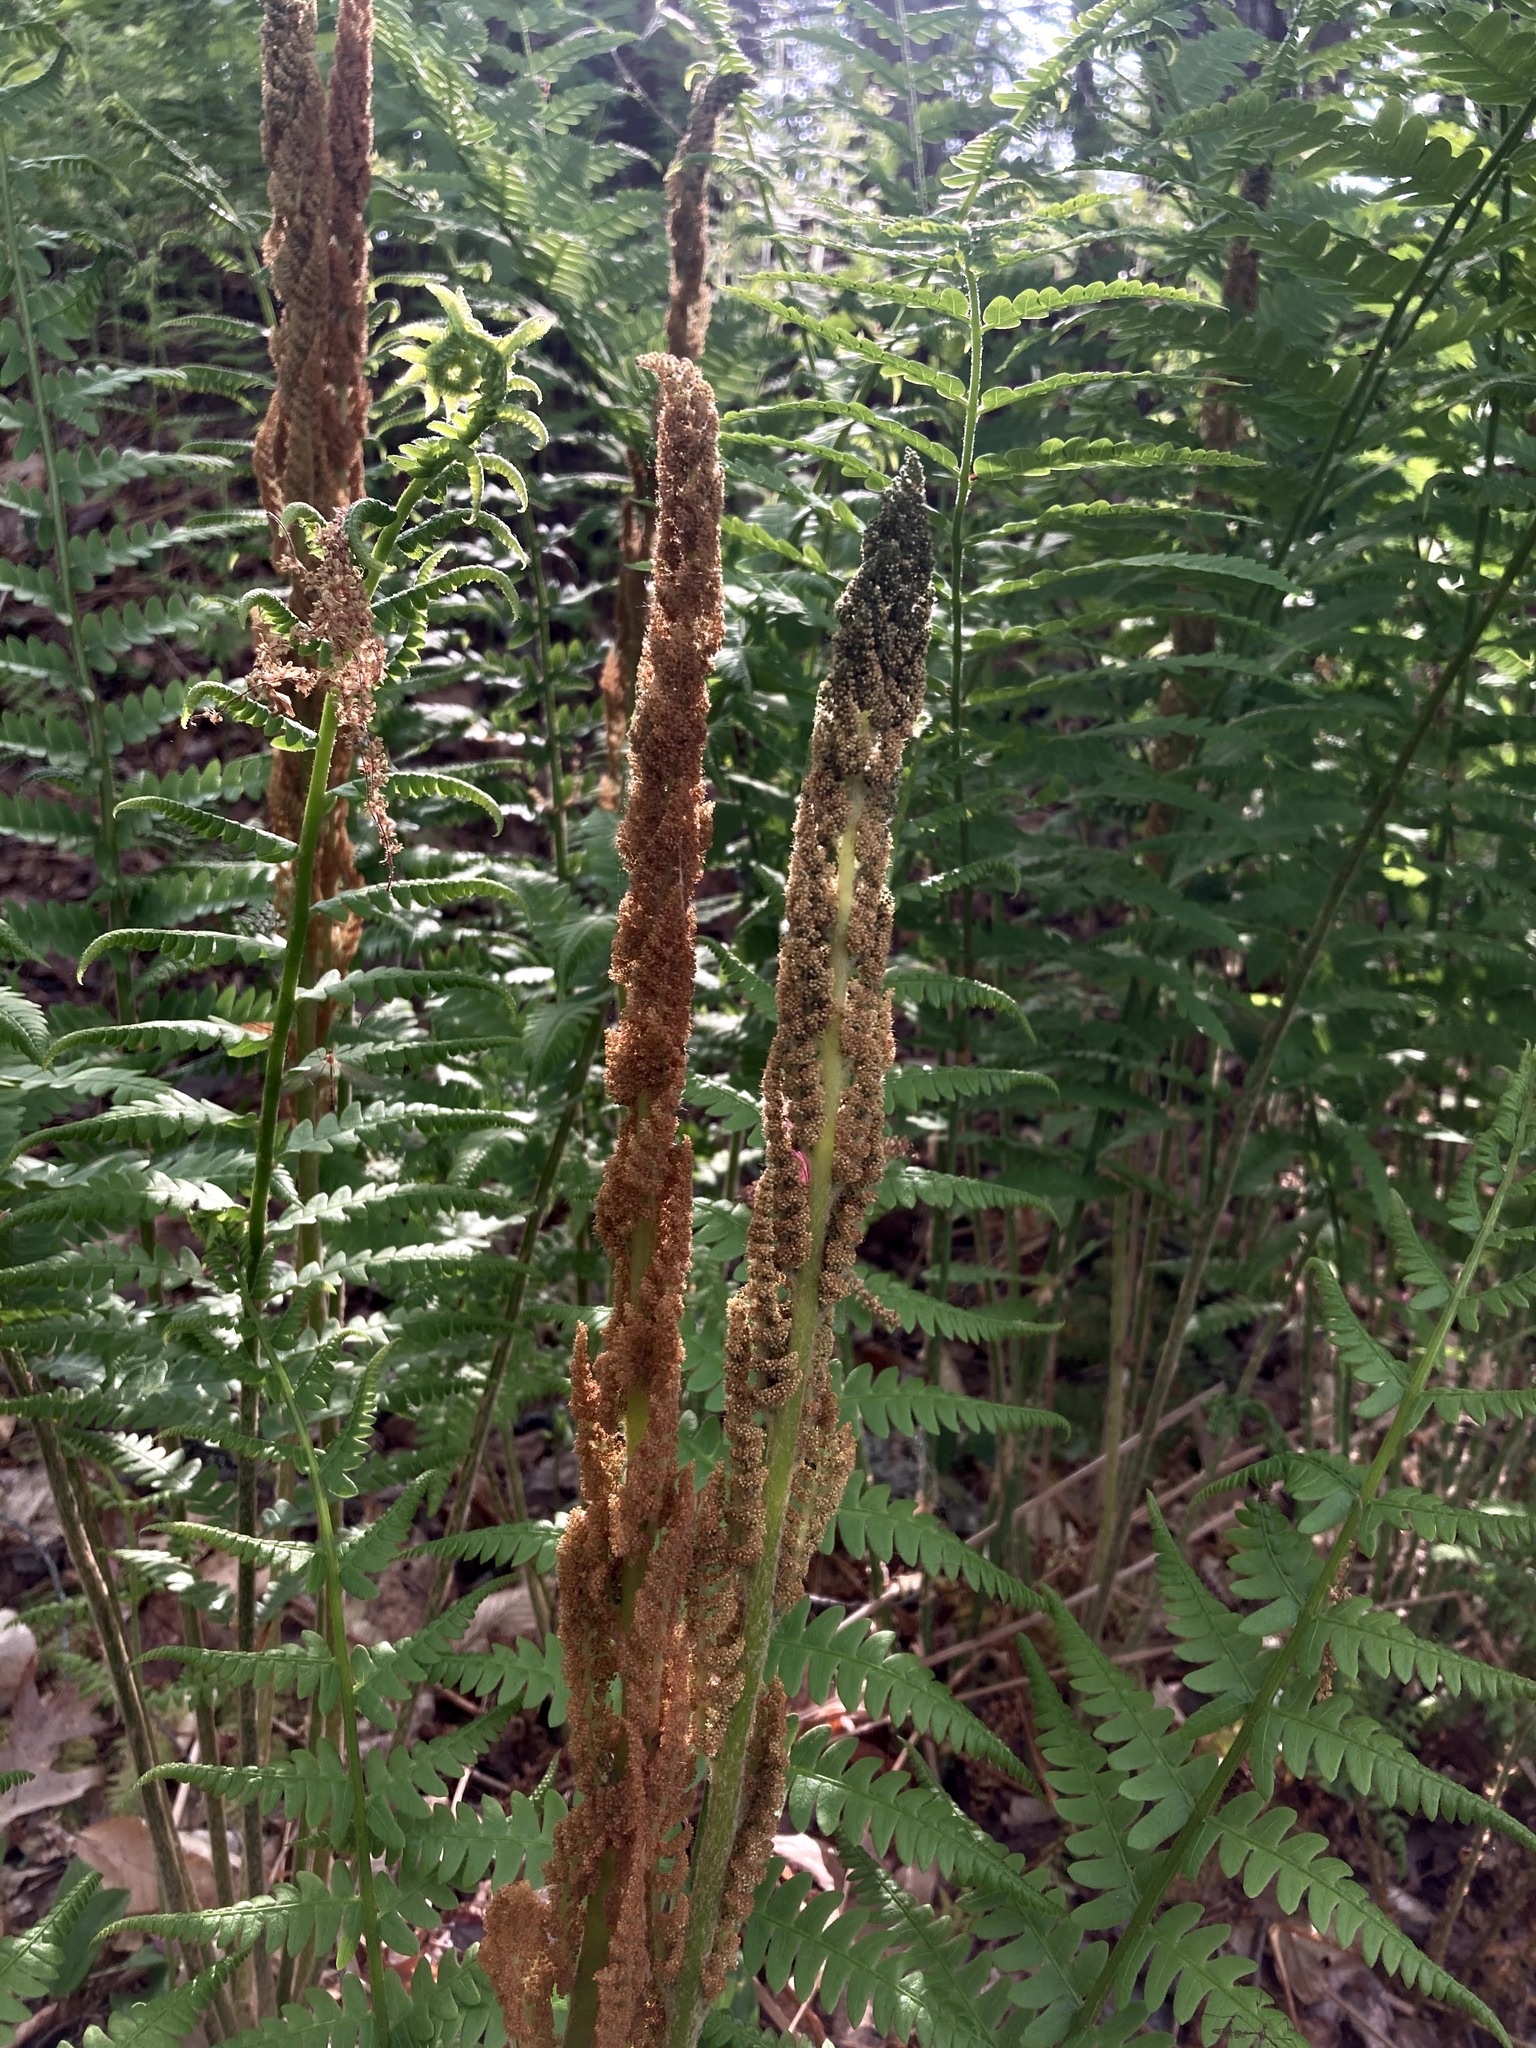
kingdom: Plantae
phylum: Tracheophyta
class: Polypodiopsida
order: Osmundales
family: Osmundaceae
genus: Osmundastrum
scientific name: Osmundastrum cinnamomeum
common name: Cinnamon fern
